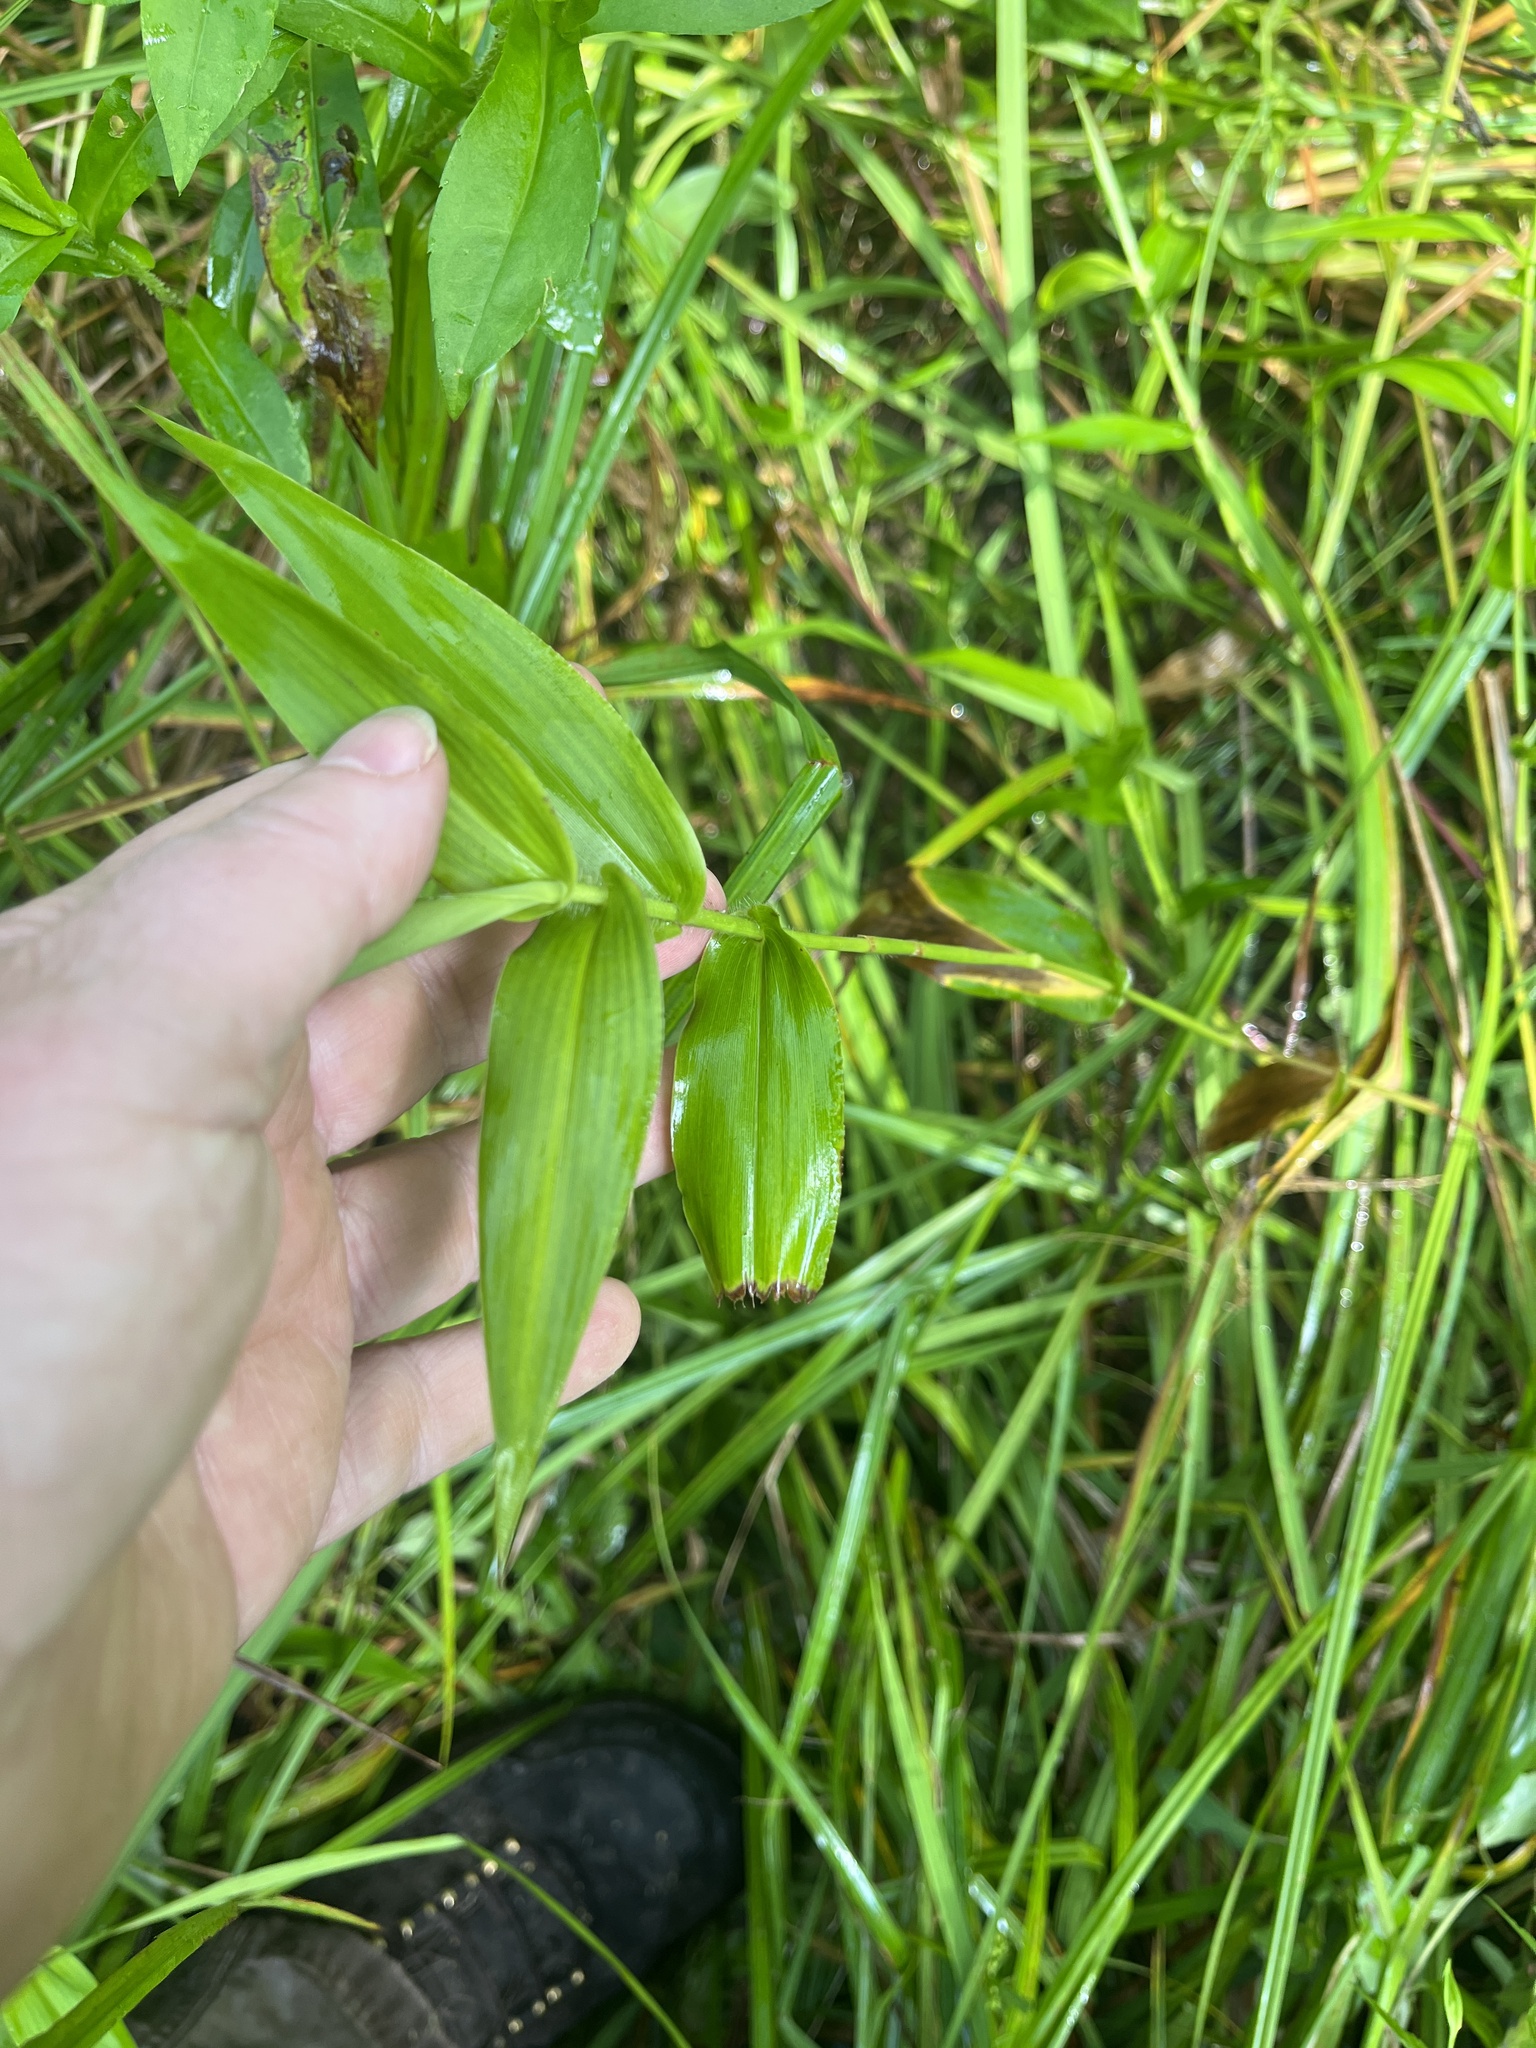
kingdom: Plantae
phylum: Tracheophyta
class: Liliopsida
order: Poales
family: Poaceae
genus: Dichanthelium
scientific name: Dichanthelium clandestinum
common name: Deer-tongue grass
